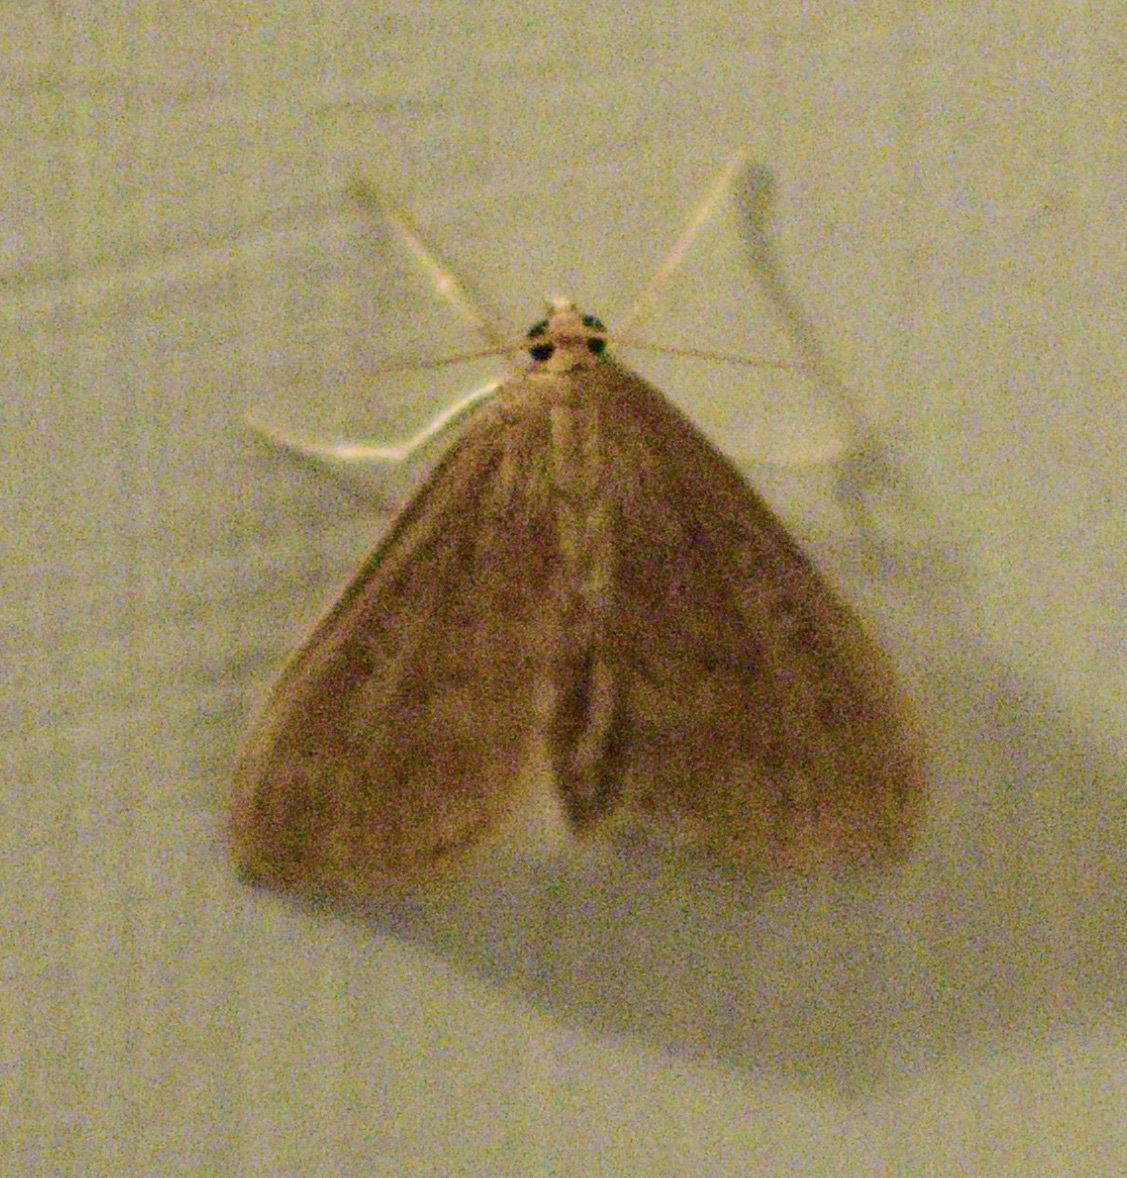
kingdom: Animalia
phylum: Arthropoda
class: Insecta
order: Lepidoptera
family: Crambidae
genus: Anania
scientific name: Anania Framinghamia helvalis
